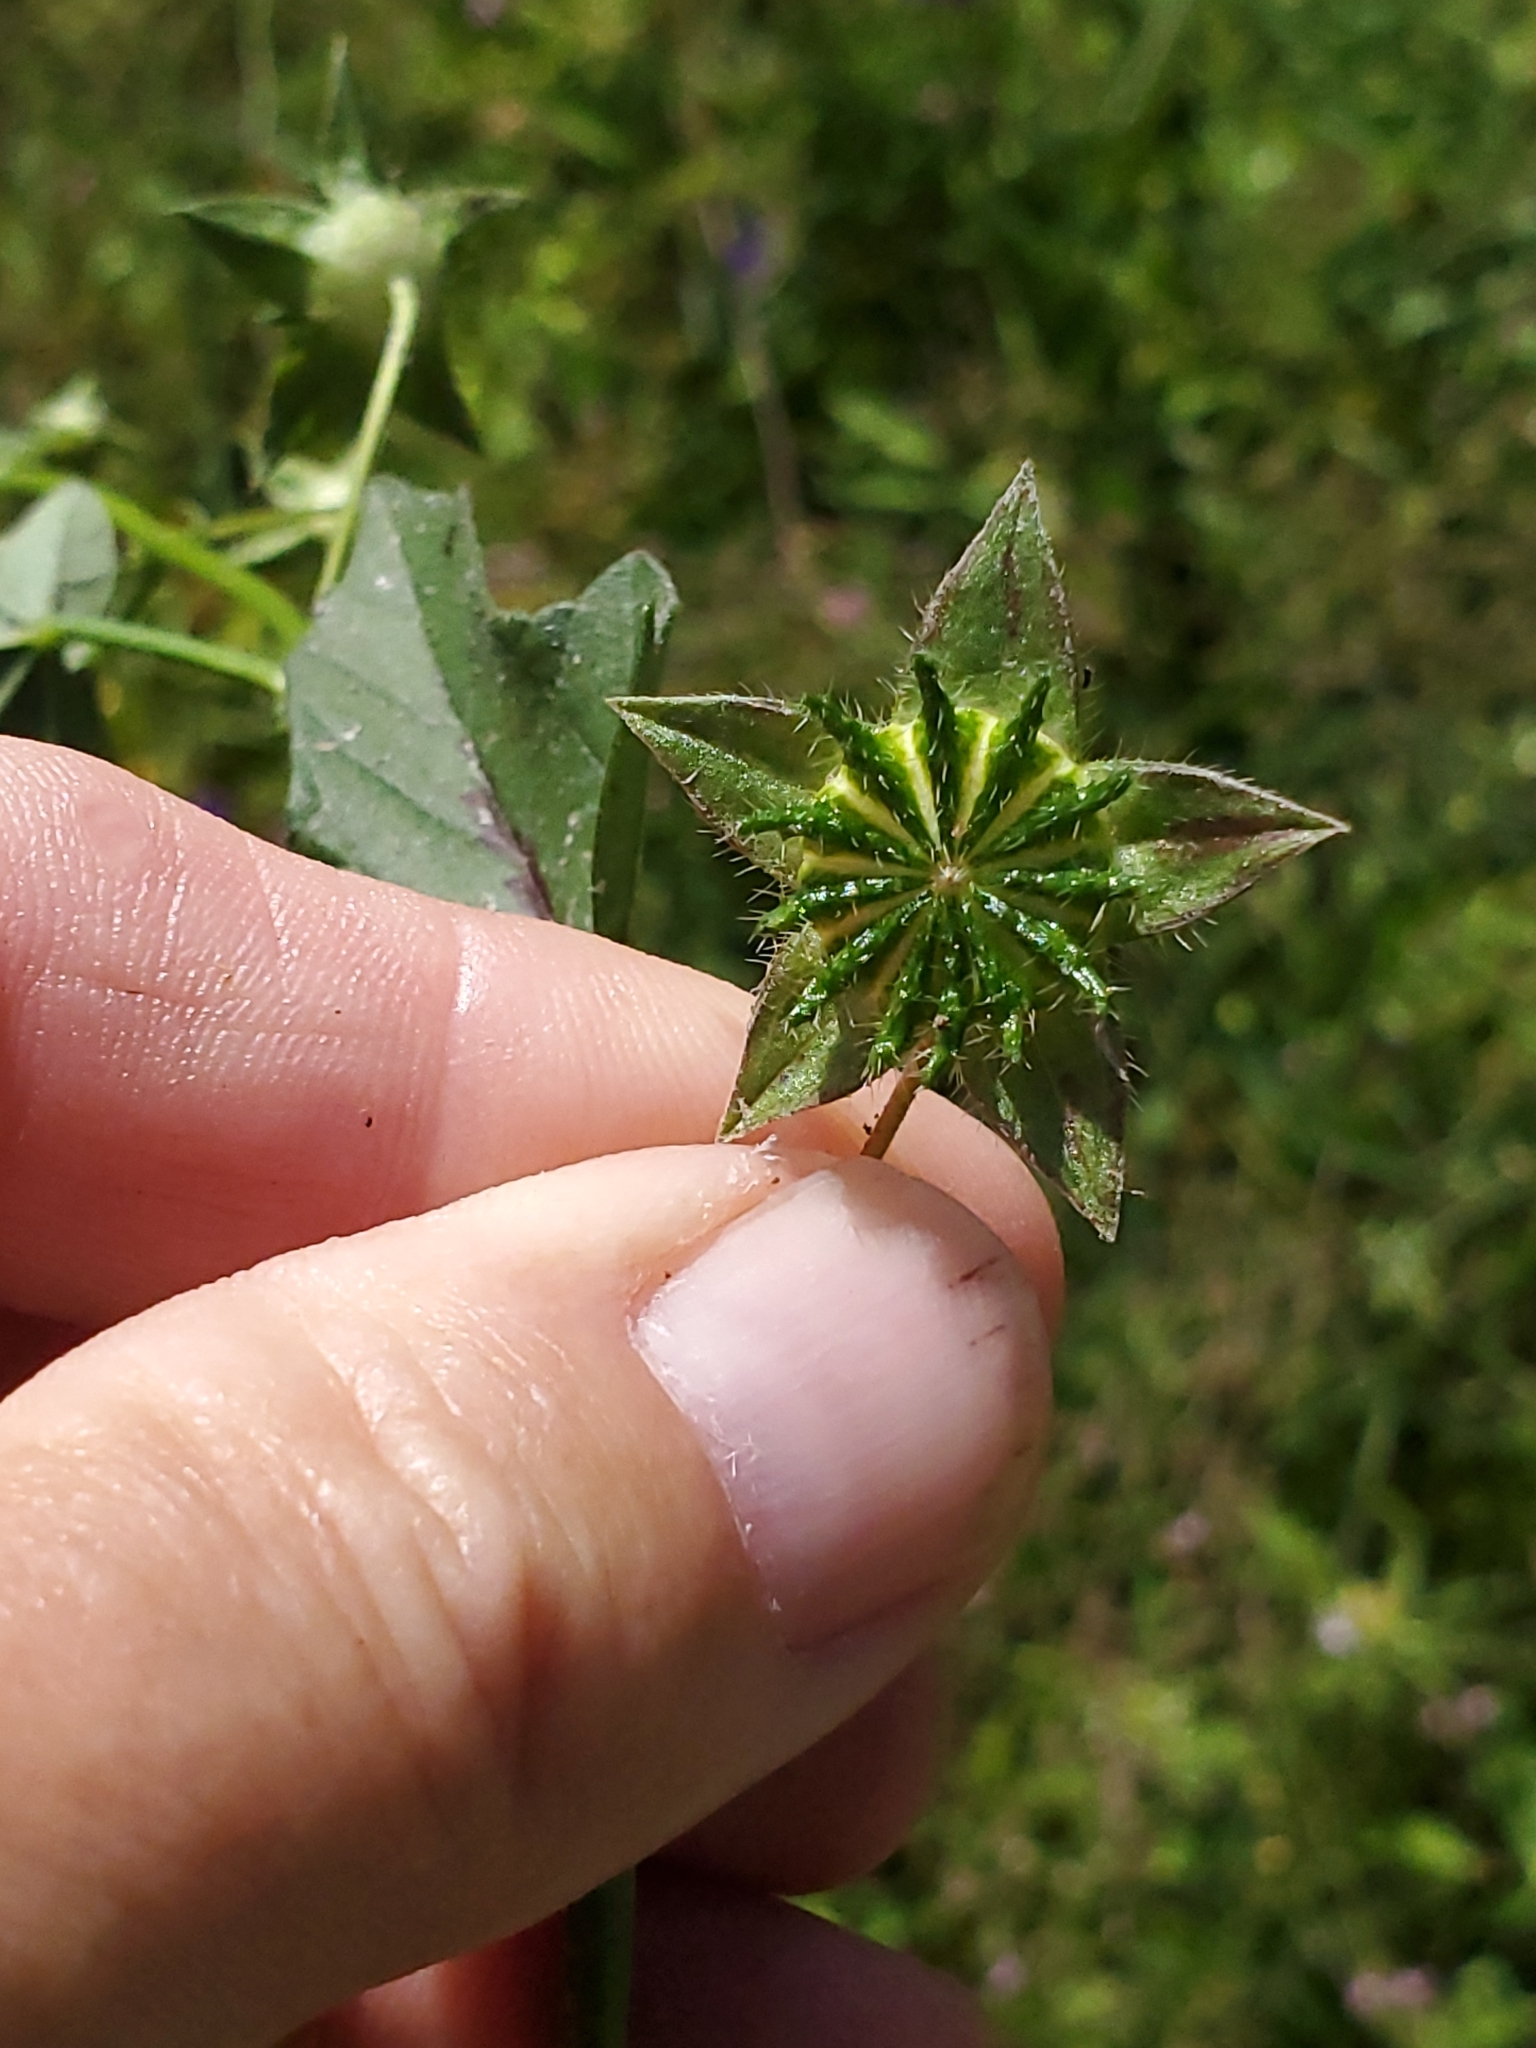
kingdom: Plantae
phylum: Tracheophyta
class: Magnoliopsida
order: Malvales
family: Malvaceae
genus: Anoda
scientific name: Anoda cristata
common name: Spurred anoda
